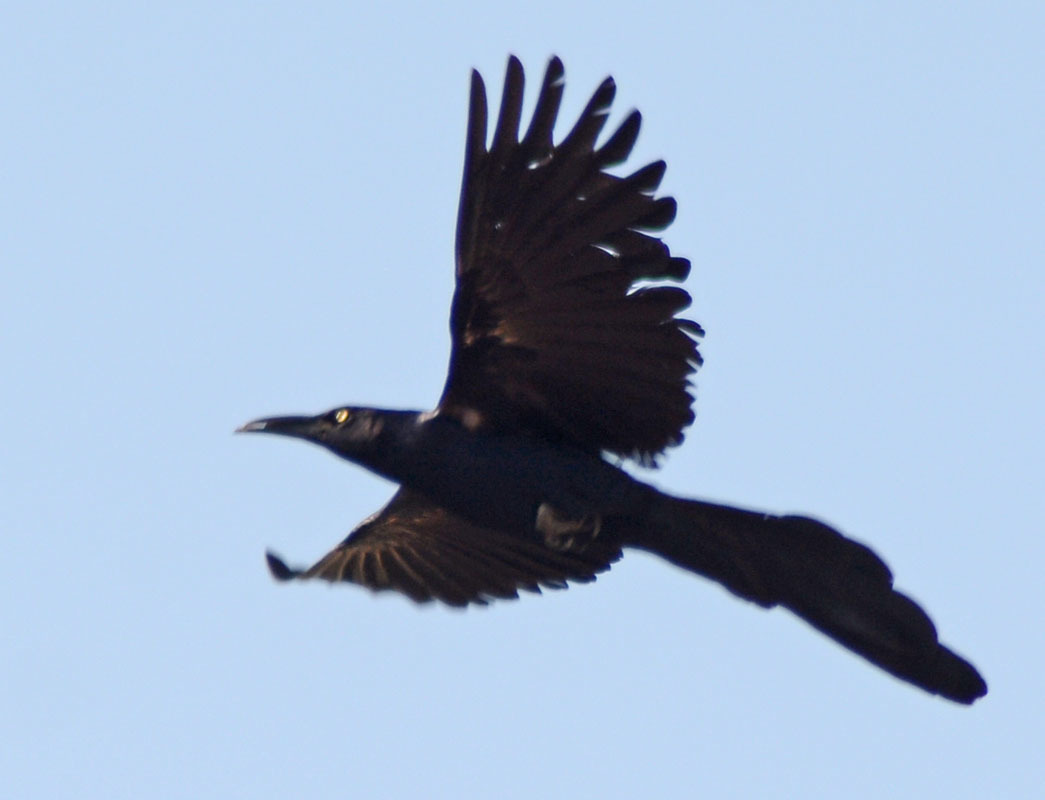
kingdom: Animalia
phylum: Chordata
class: Aves
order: Passeriformes
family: Icteridae
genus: Quiscalus
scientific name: Quiscalus mexicanus
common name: Great-tailed grackle
